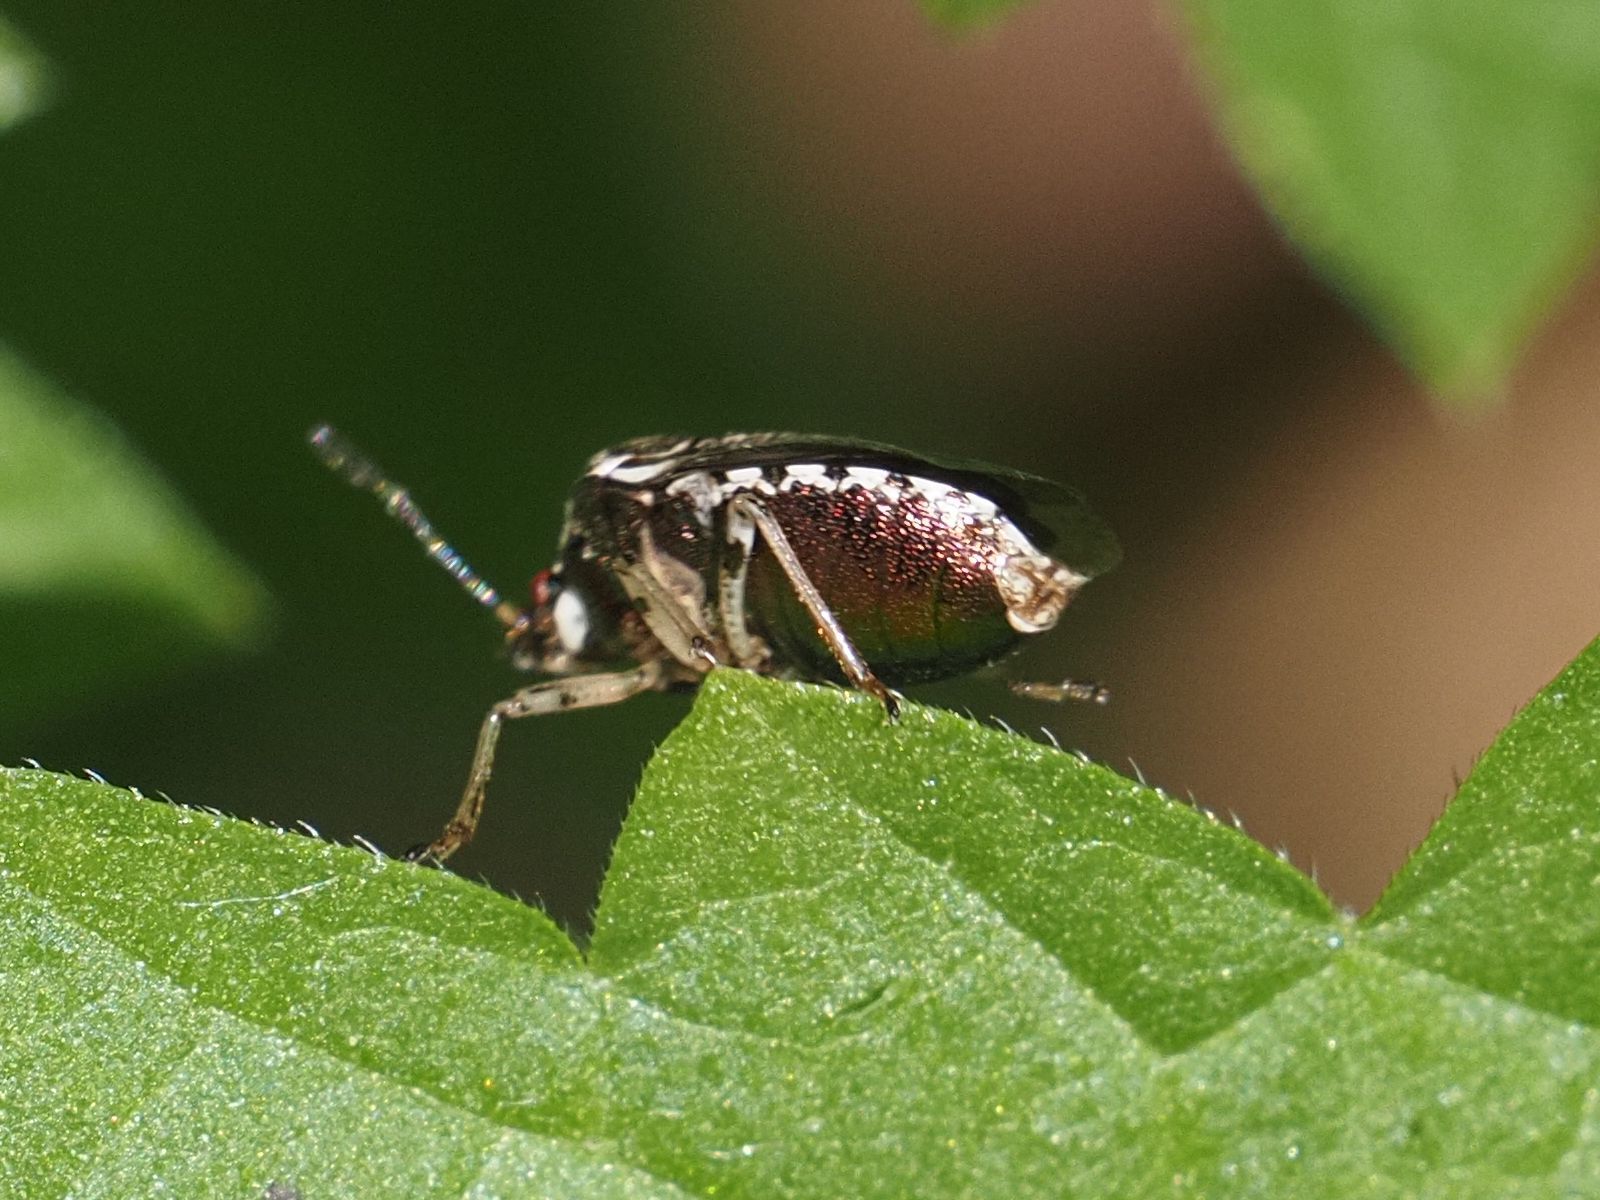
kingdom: Animalia
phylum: Arthropoda
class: Insecta
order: Hemiptera
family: Pentatomidae
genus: Eysarcoris
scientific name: Eysarcoris venustissimus
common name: Woundwort shieldbug
